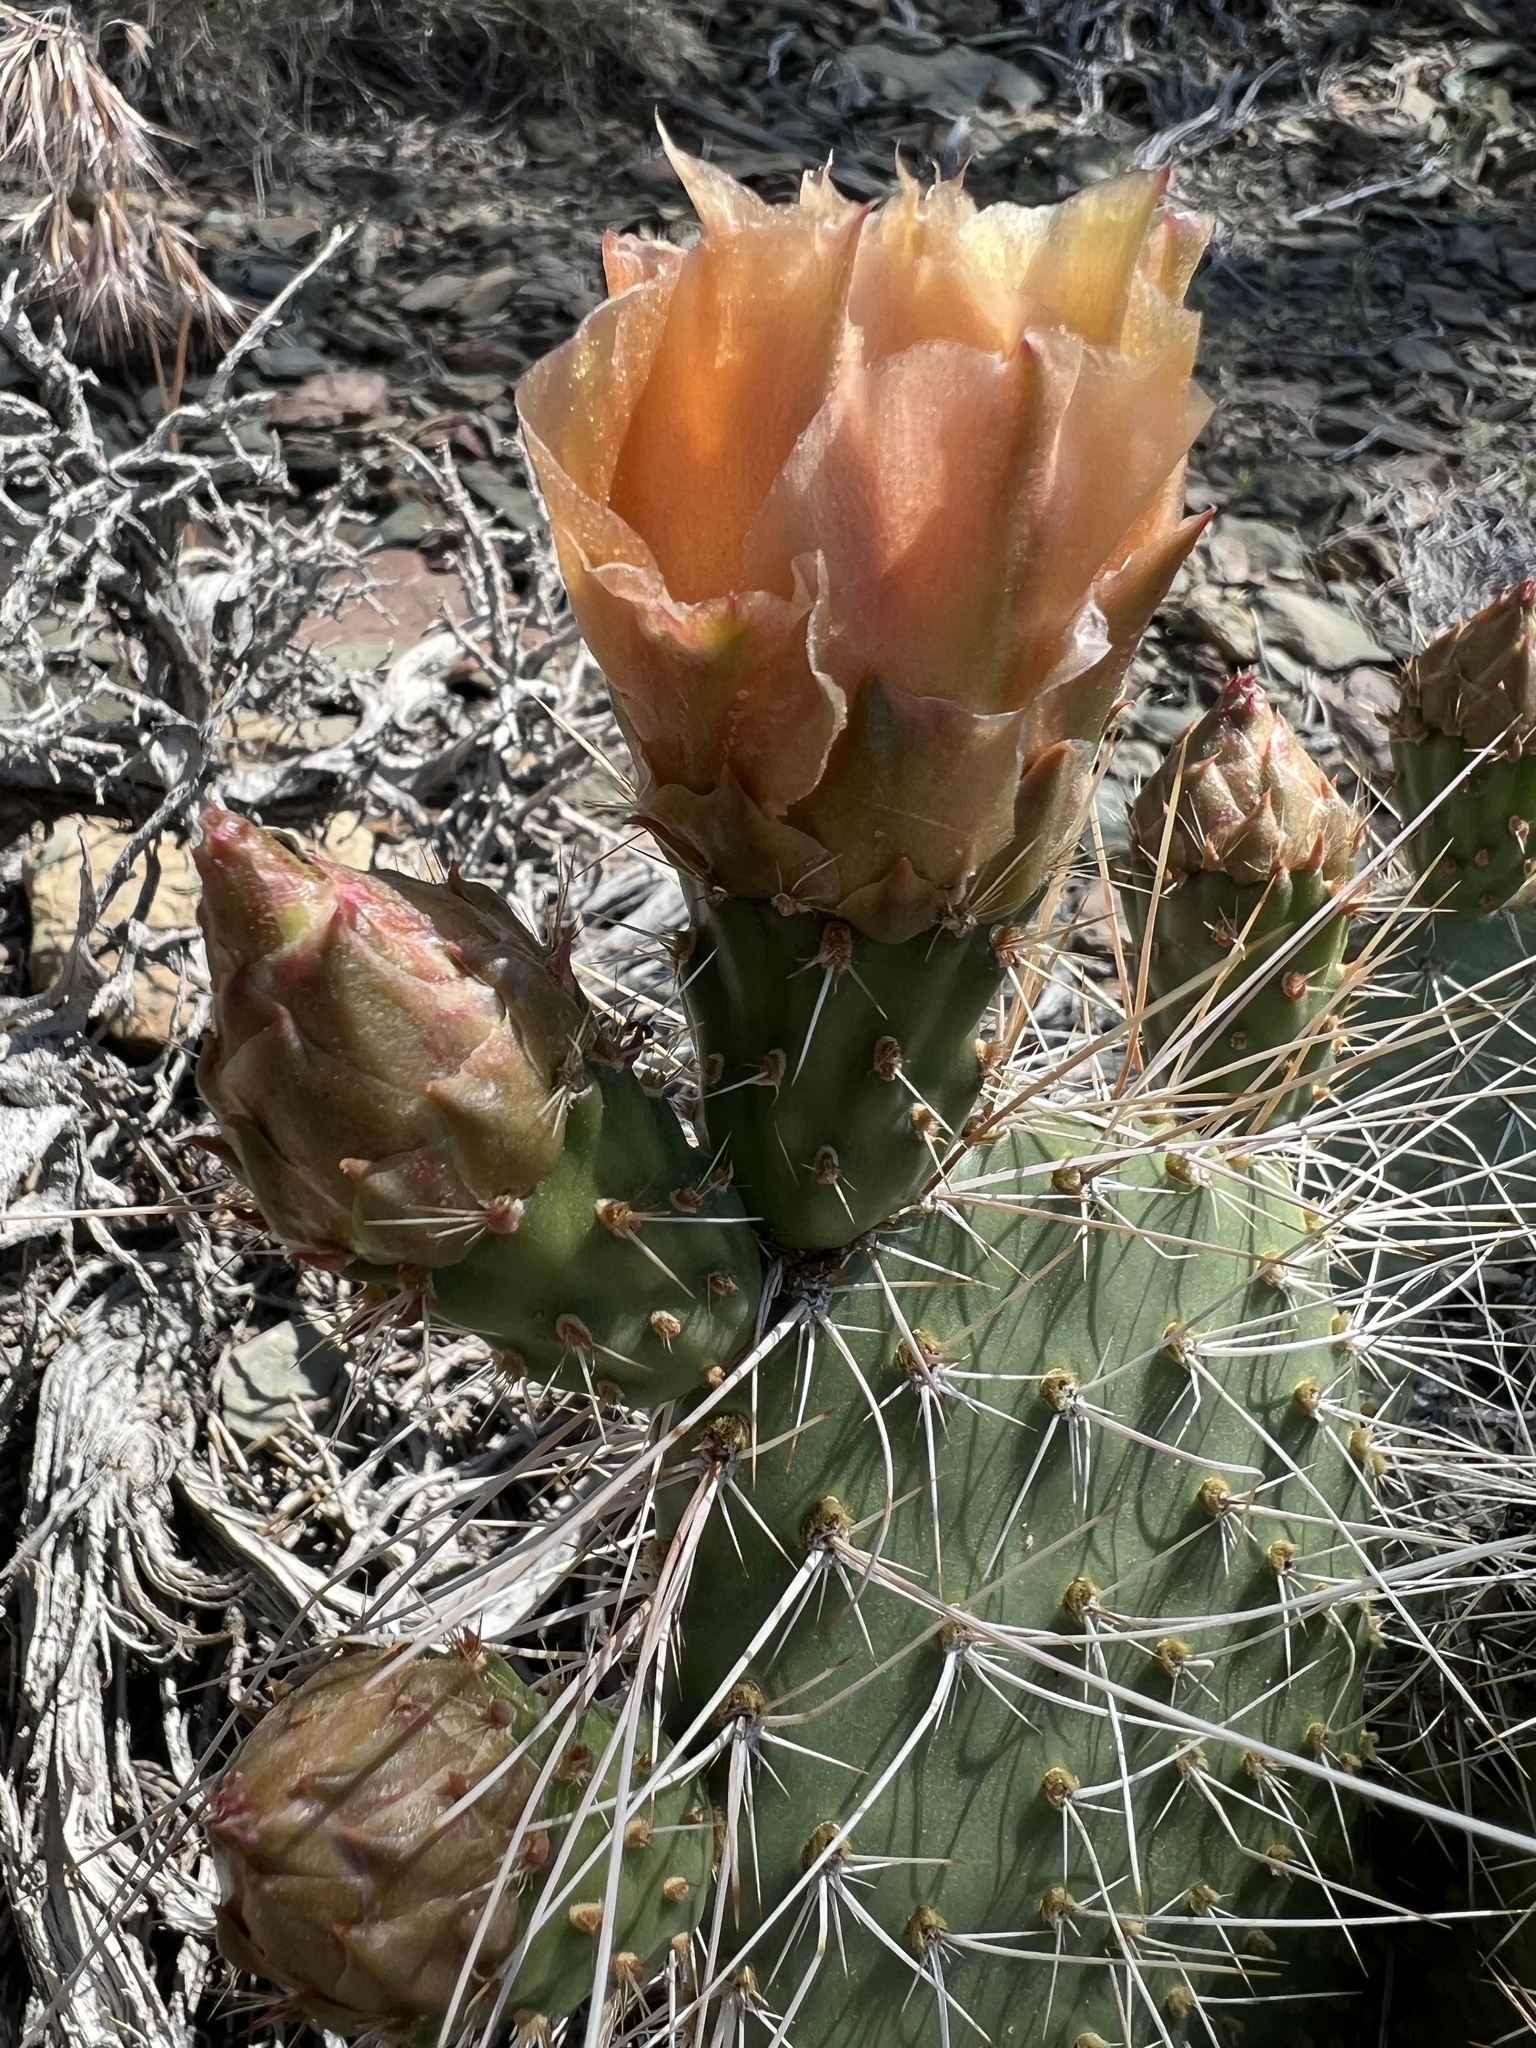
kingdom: Plantae
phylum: Tracheophyta
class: Magnoliopsida
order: Caryophyllales
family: Cactaceae
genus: Opuntia
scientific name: Opuntia polyacantha
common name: Plains prickly-pear
